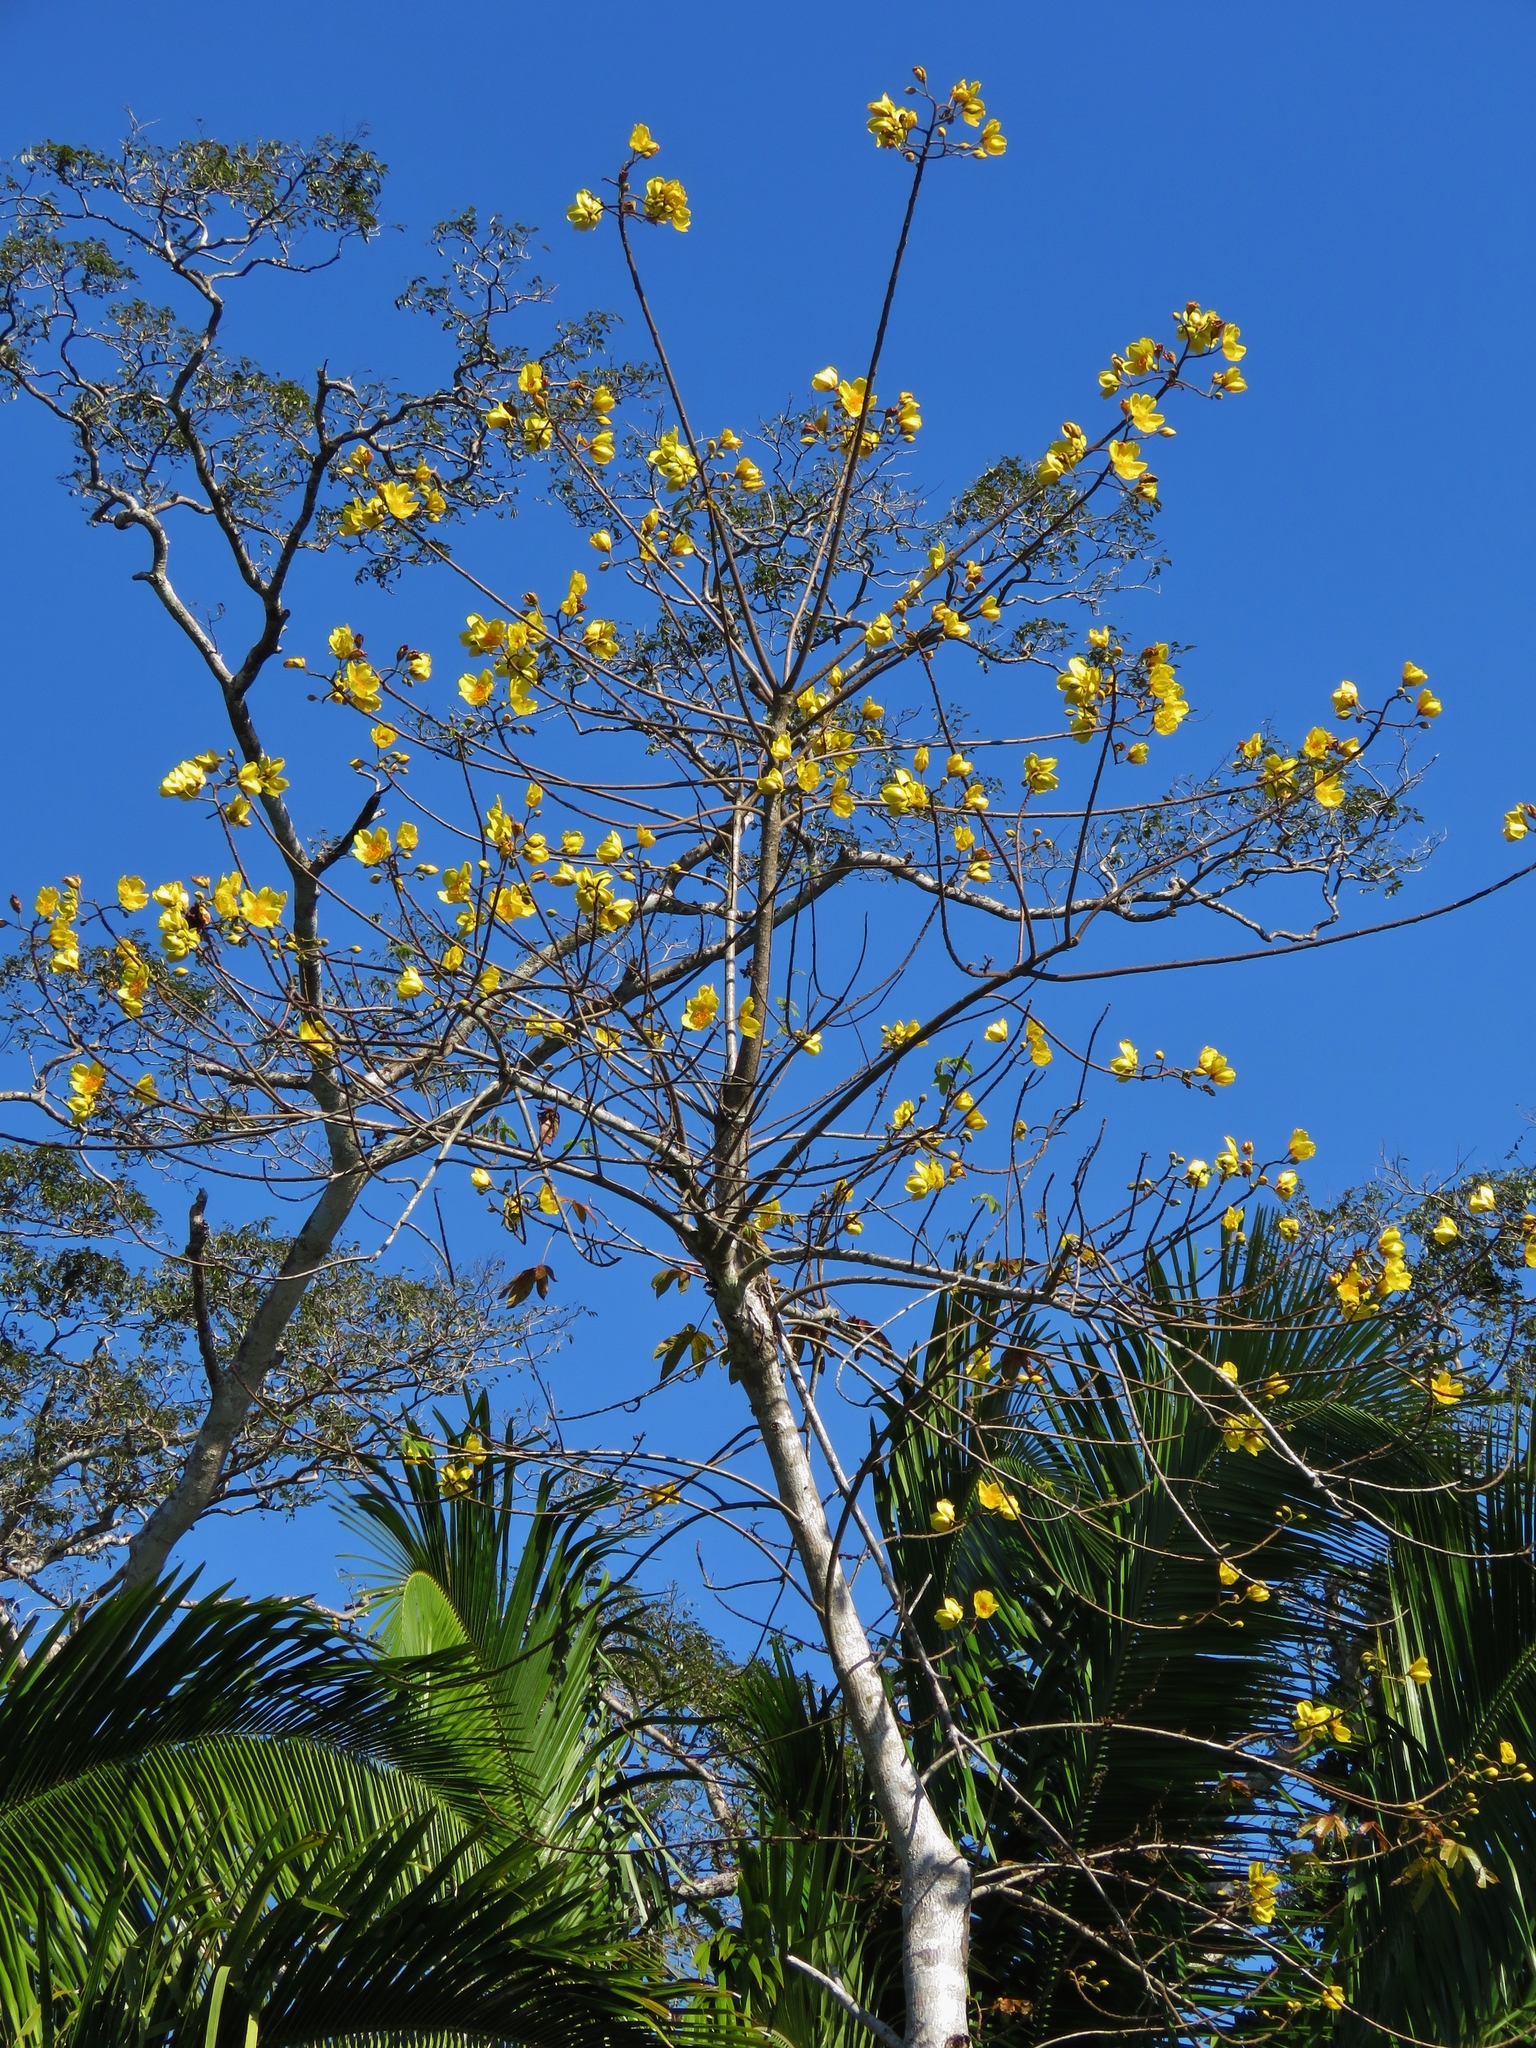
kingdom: Plantae
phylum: Tracheophyta
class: Magnoliopsida
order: Malvales
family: Cochlospermaceae
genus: Cochlospermum
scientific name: Cochlospermum vitifolium
